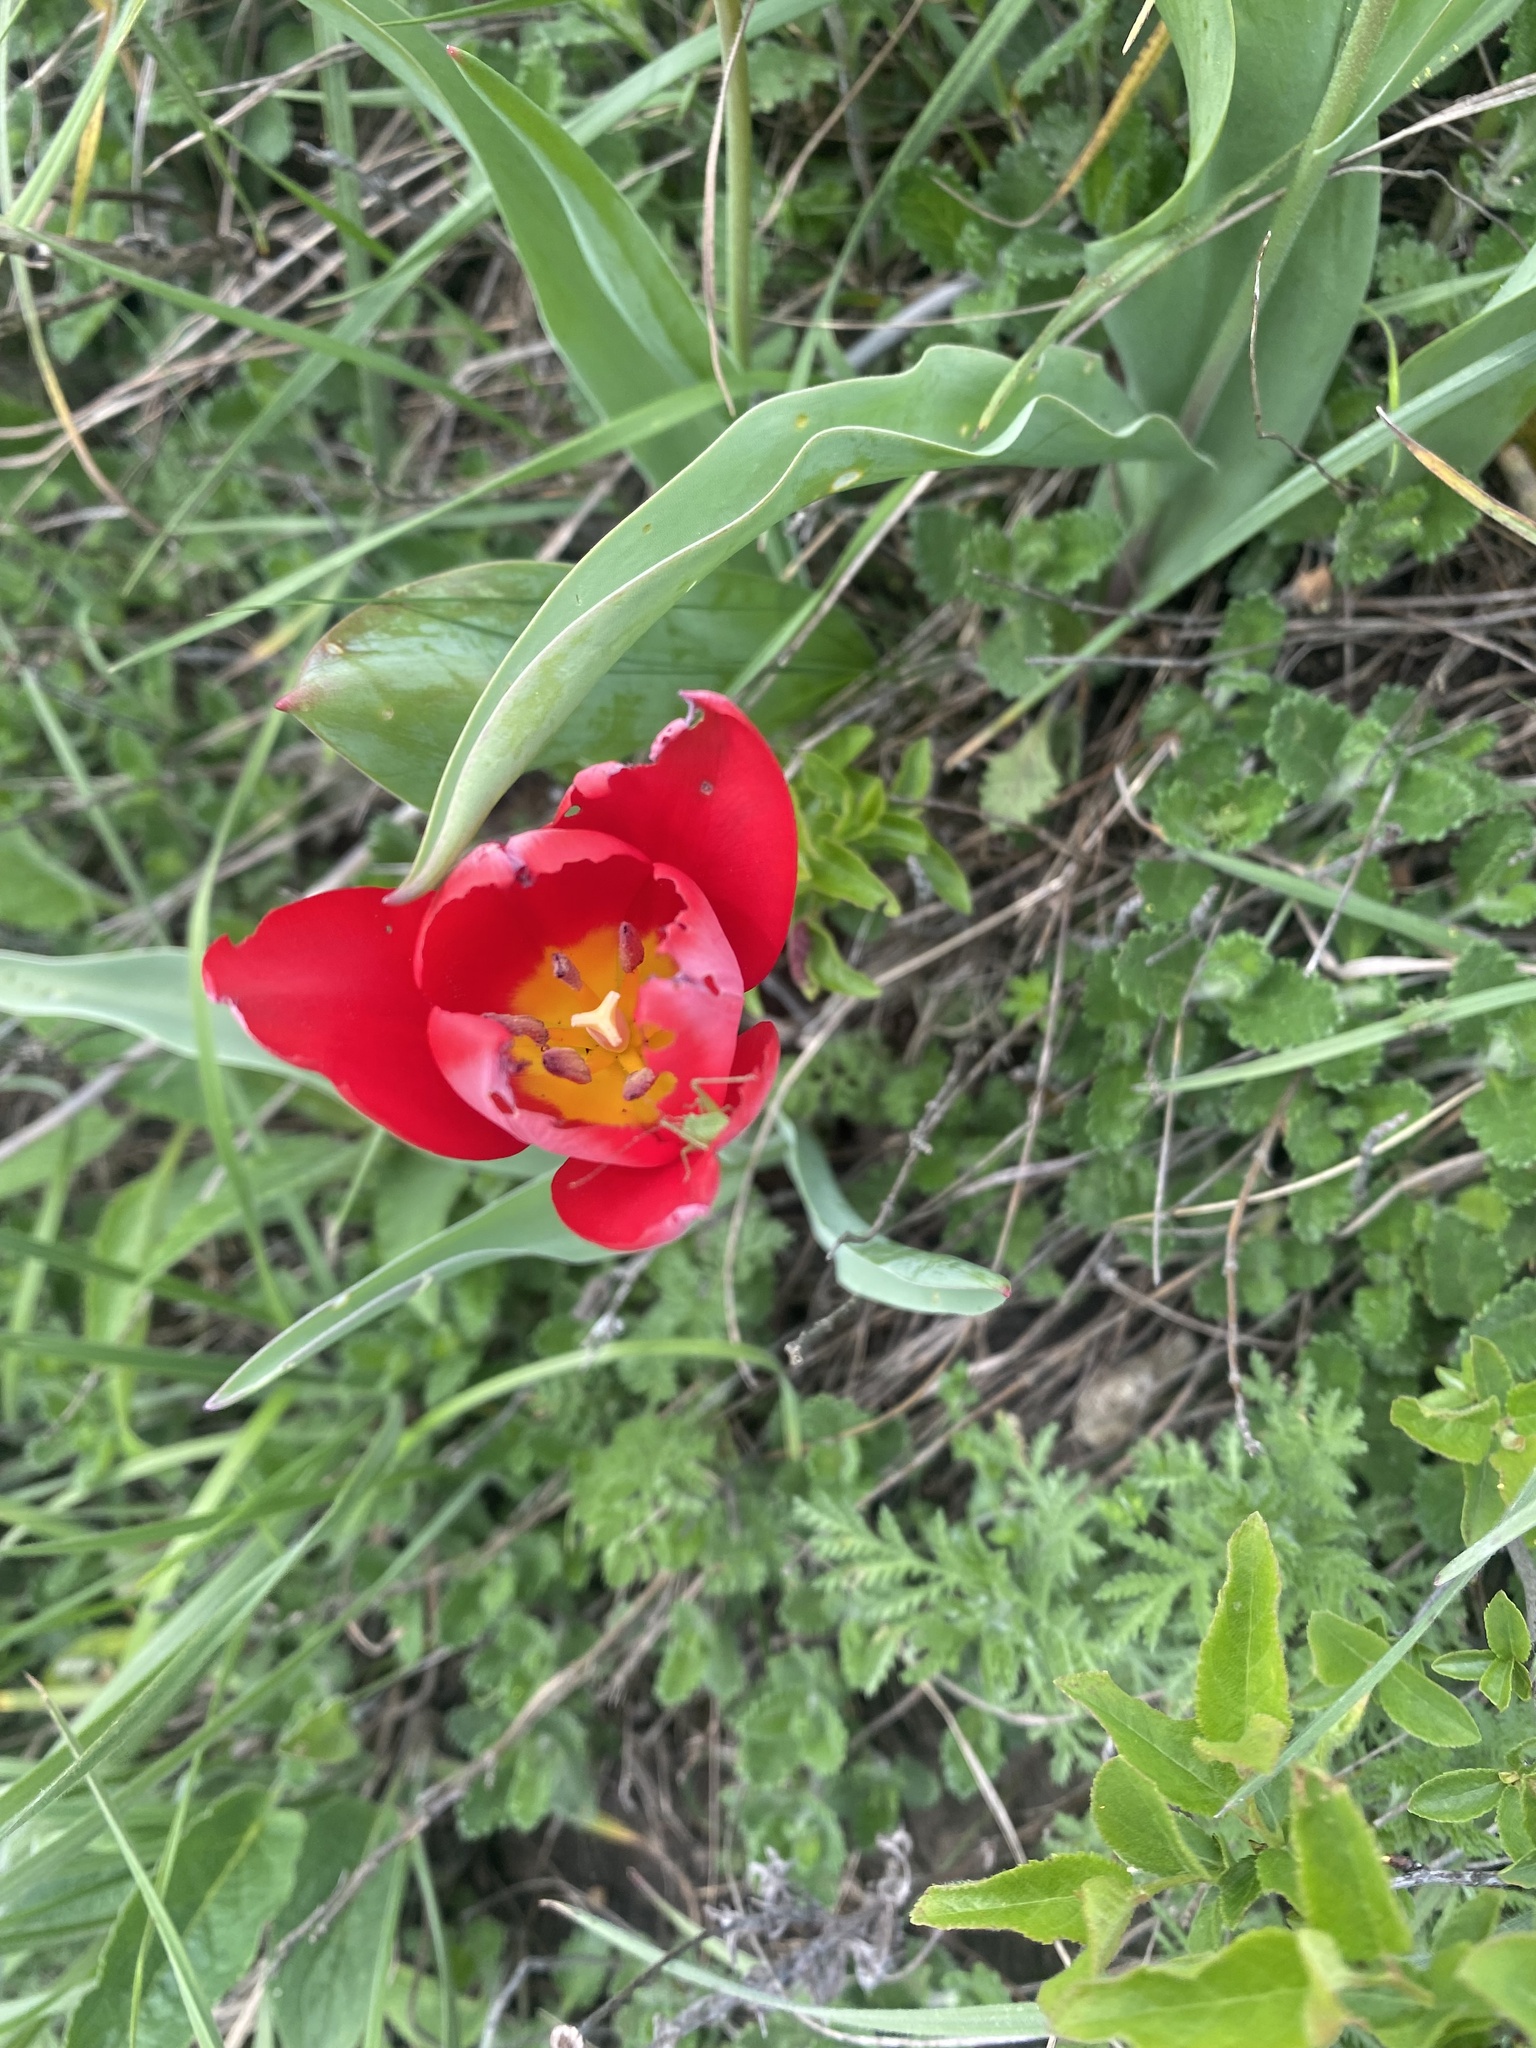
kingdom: Plantae
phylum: Tracheophyta
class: Liliopsida
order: Liliales
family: Liliaceae
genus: Tulipa
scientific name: Tulipa suaveolens
